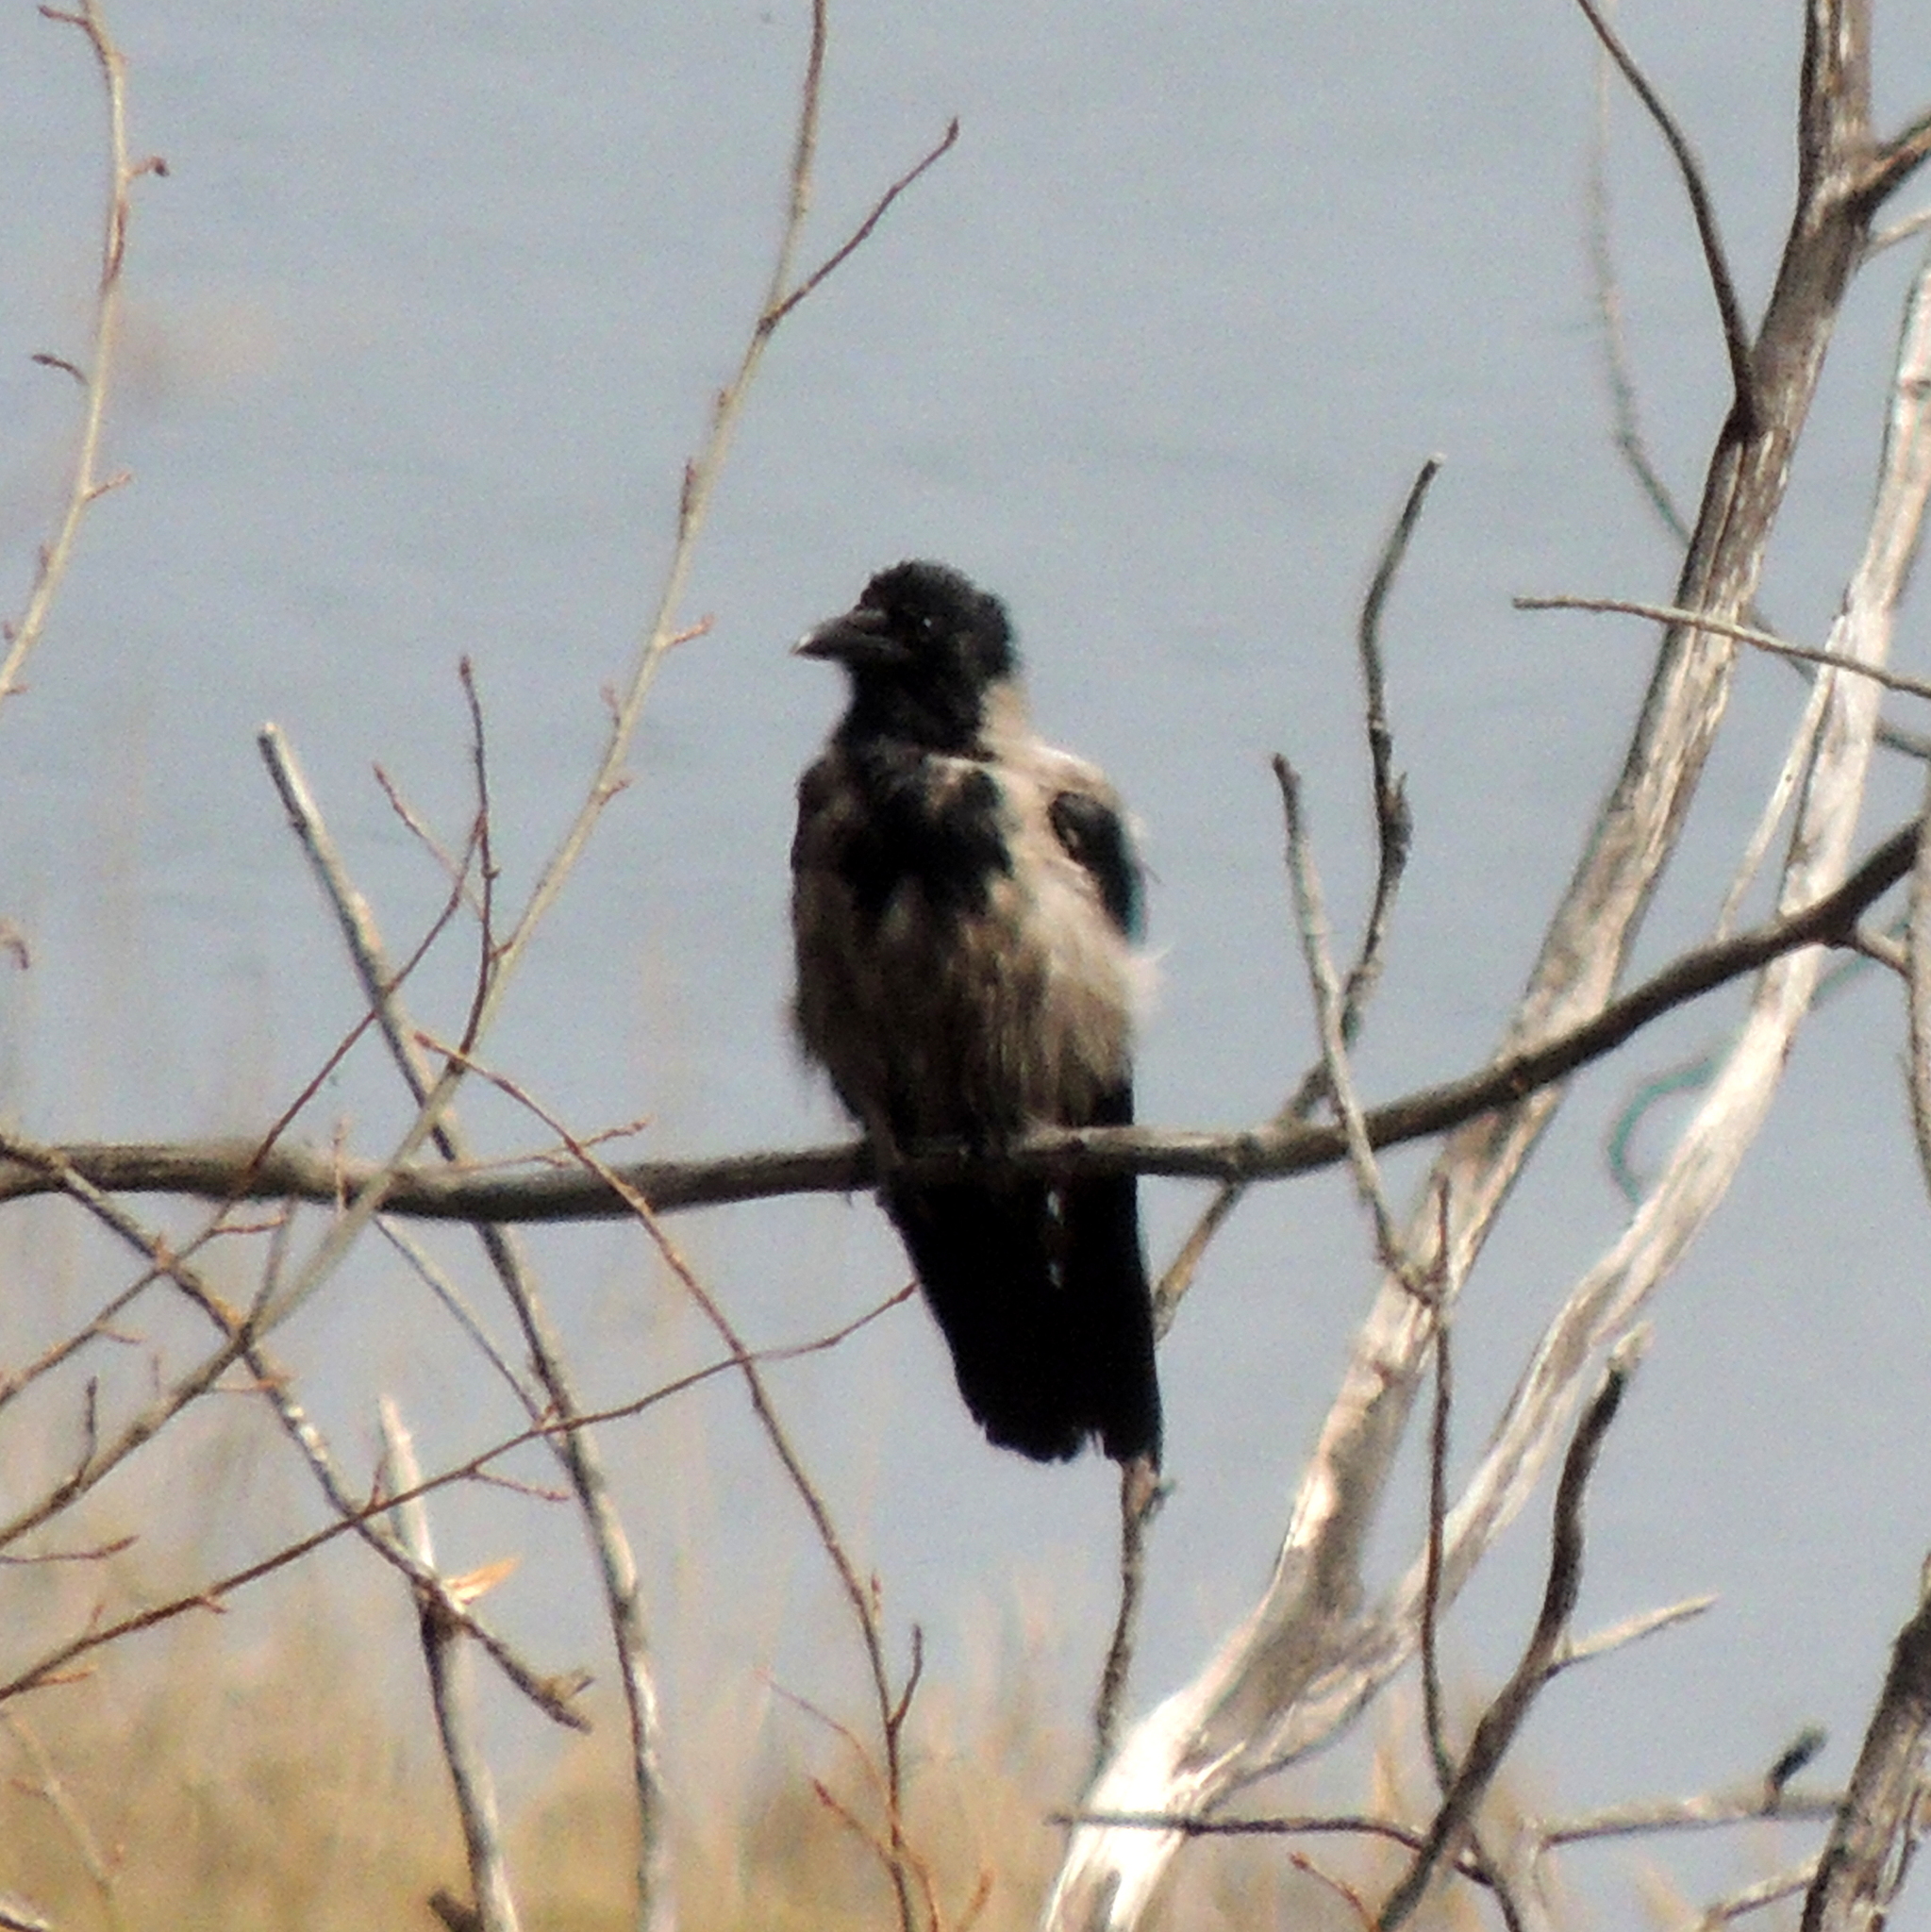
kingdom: Animalia
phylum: Chordata
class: Aves
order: Passeriformes
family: Corvidae
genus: Corvus
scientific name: Corvus cornix
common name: Hooded crow
